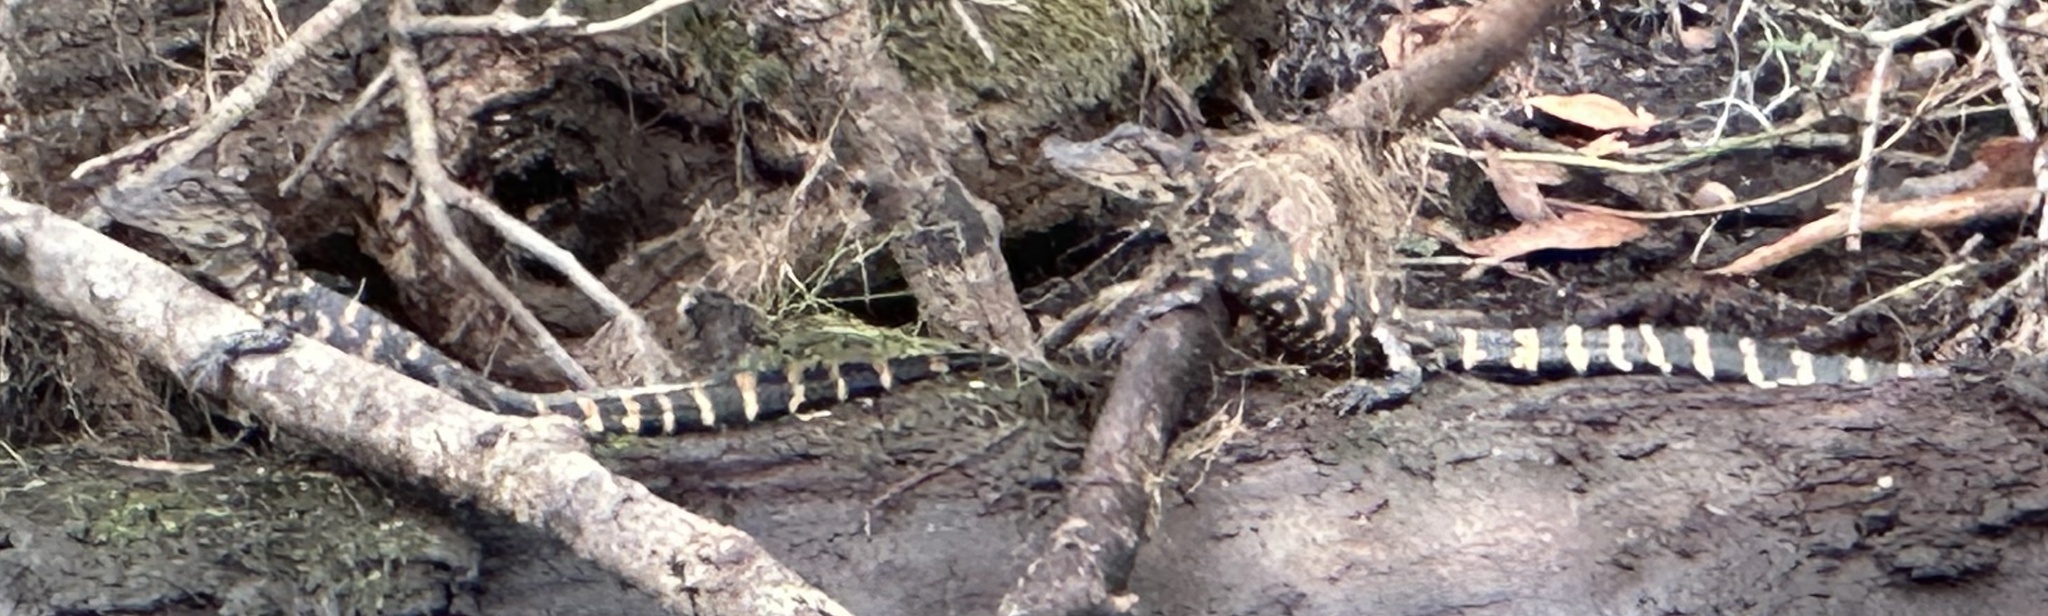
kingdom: Animalia
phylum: Chordata
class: Crocodylia
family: Alligatoridae
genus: Alligator
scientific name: Alligator mississippiensis
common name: American alligator
